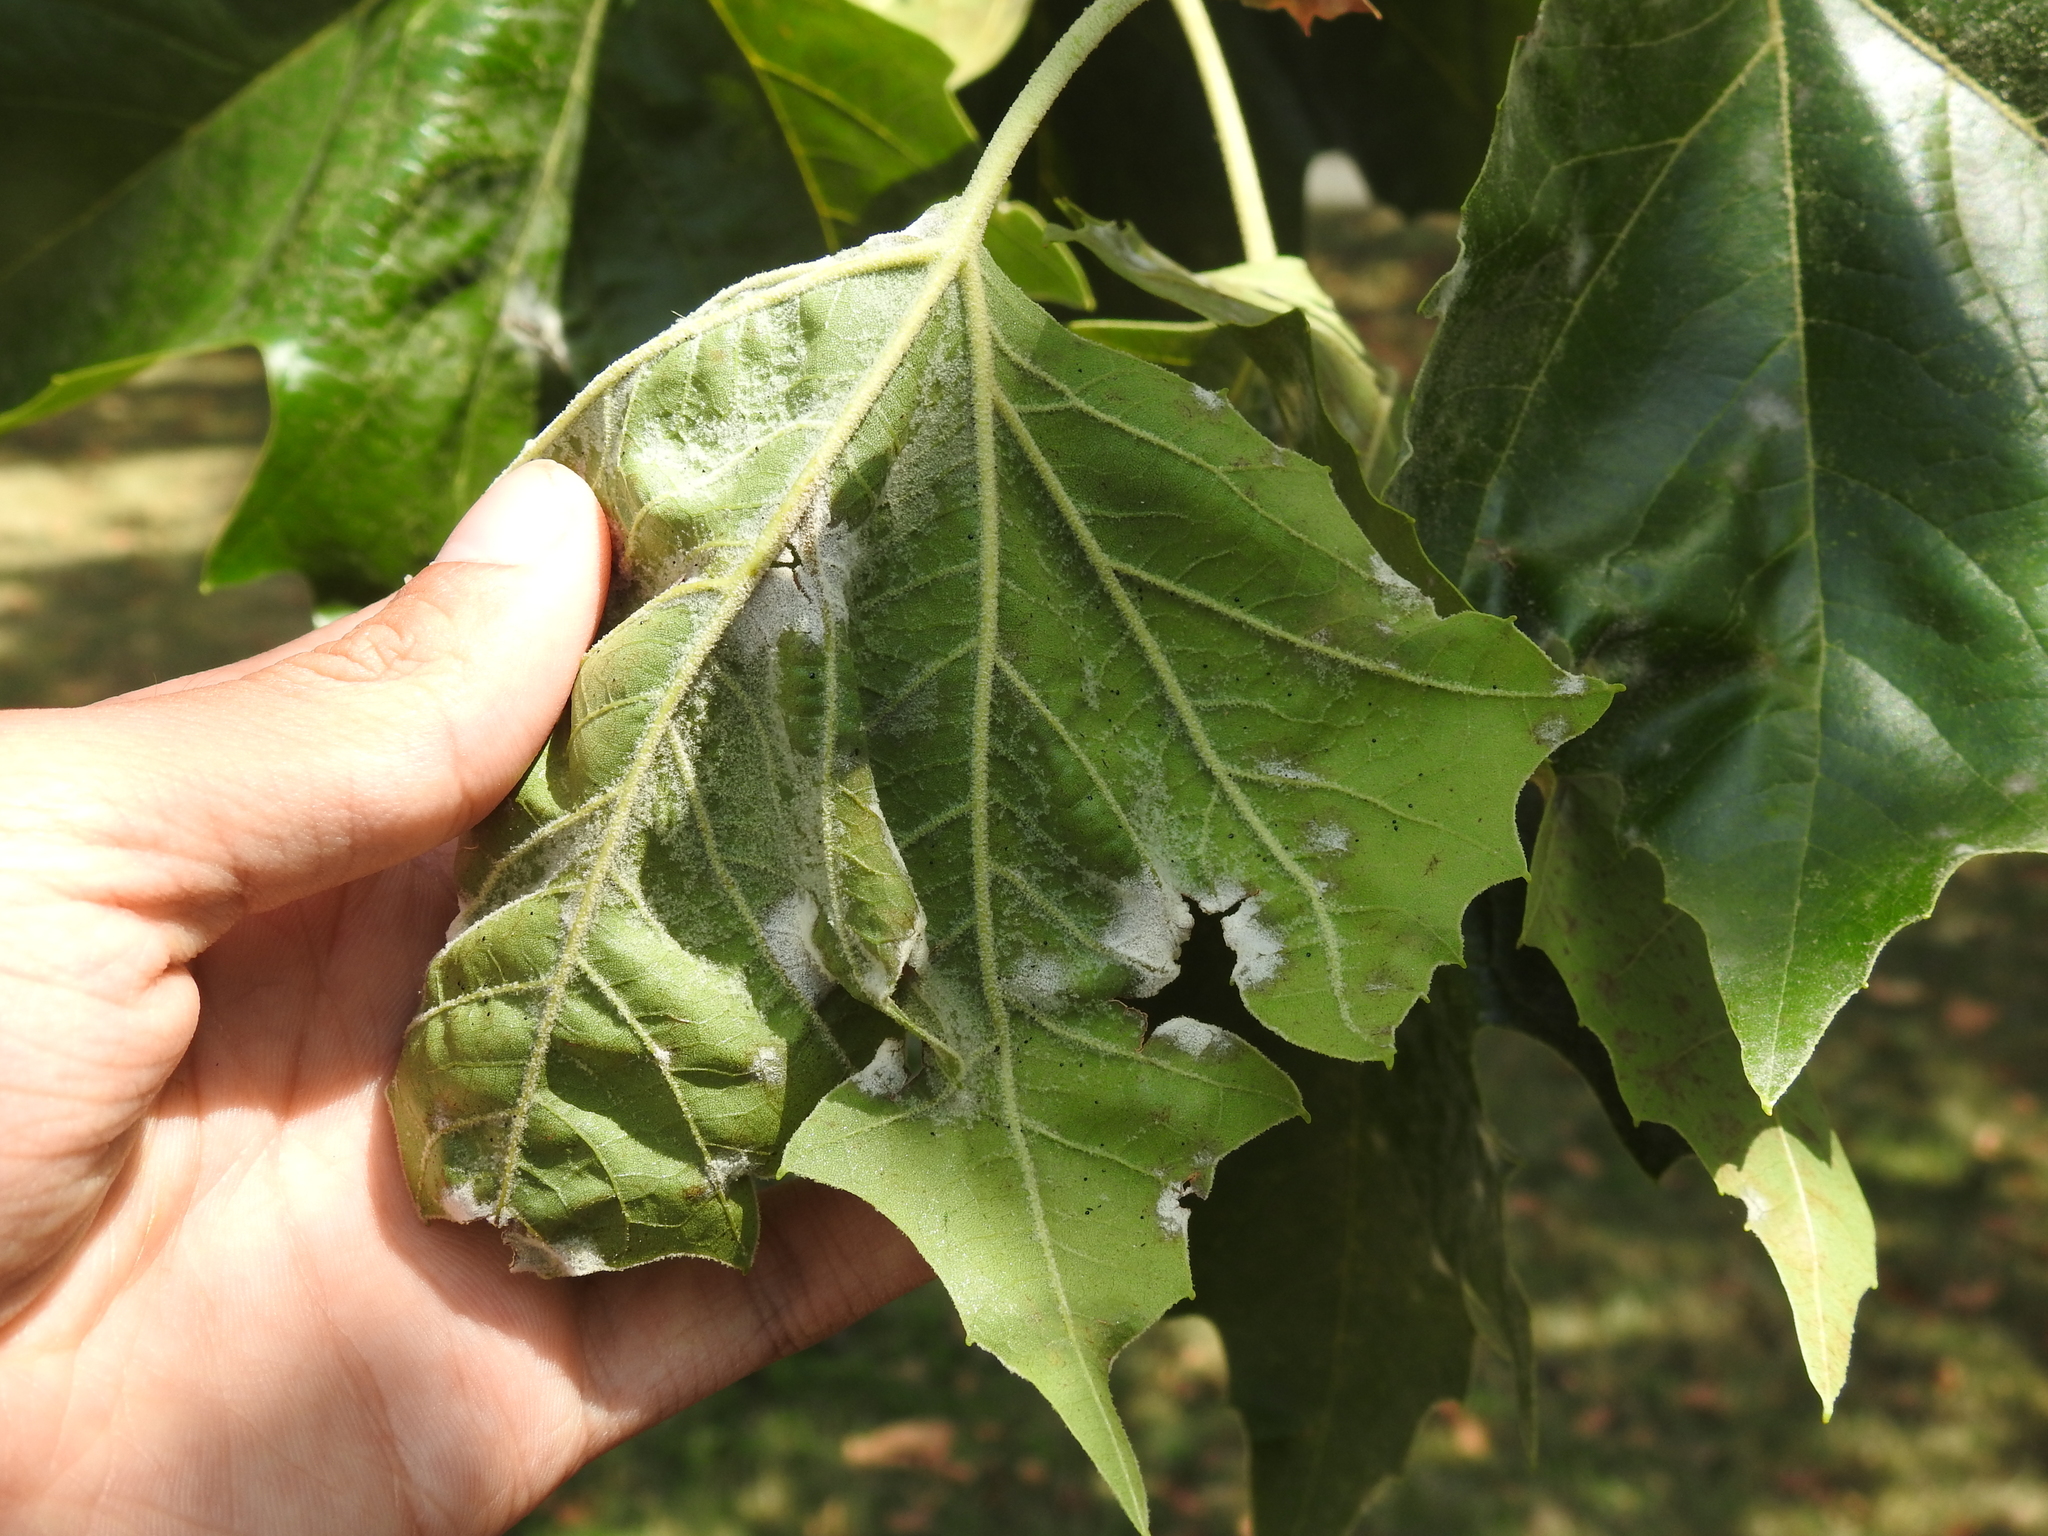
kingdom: Fungi
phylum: Ascomycota
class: Leotiomycetes
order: Helotiales
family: Erysiphaceae
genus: Erysiphe
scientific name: Erysiphe platani
